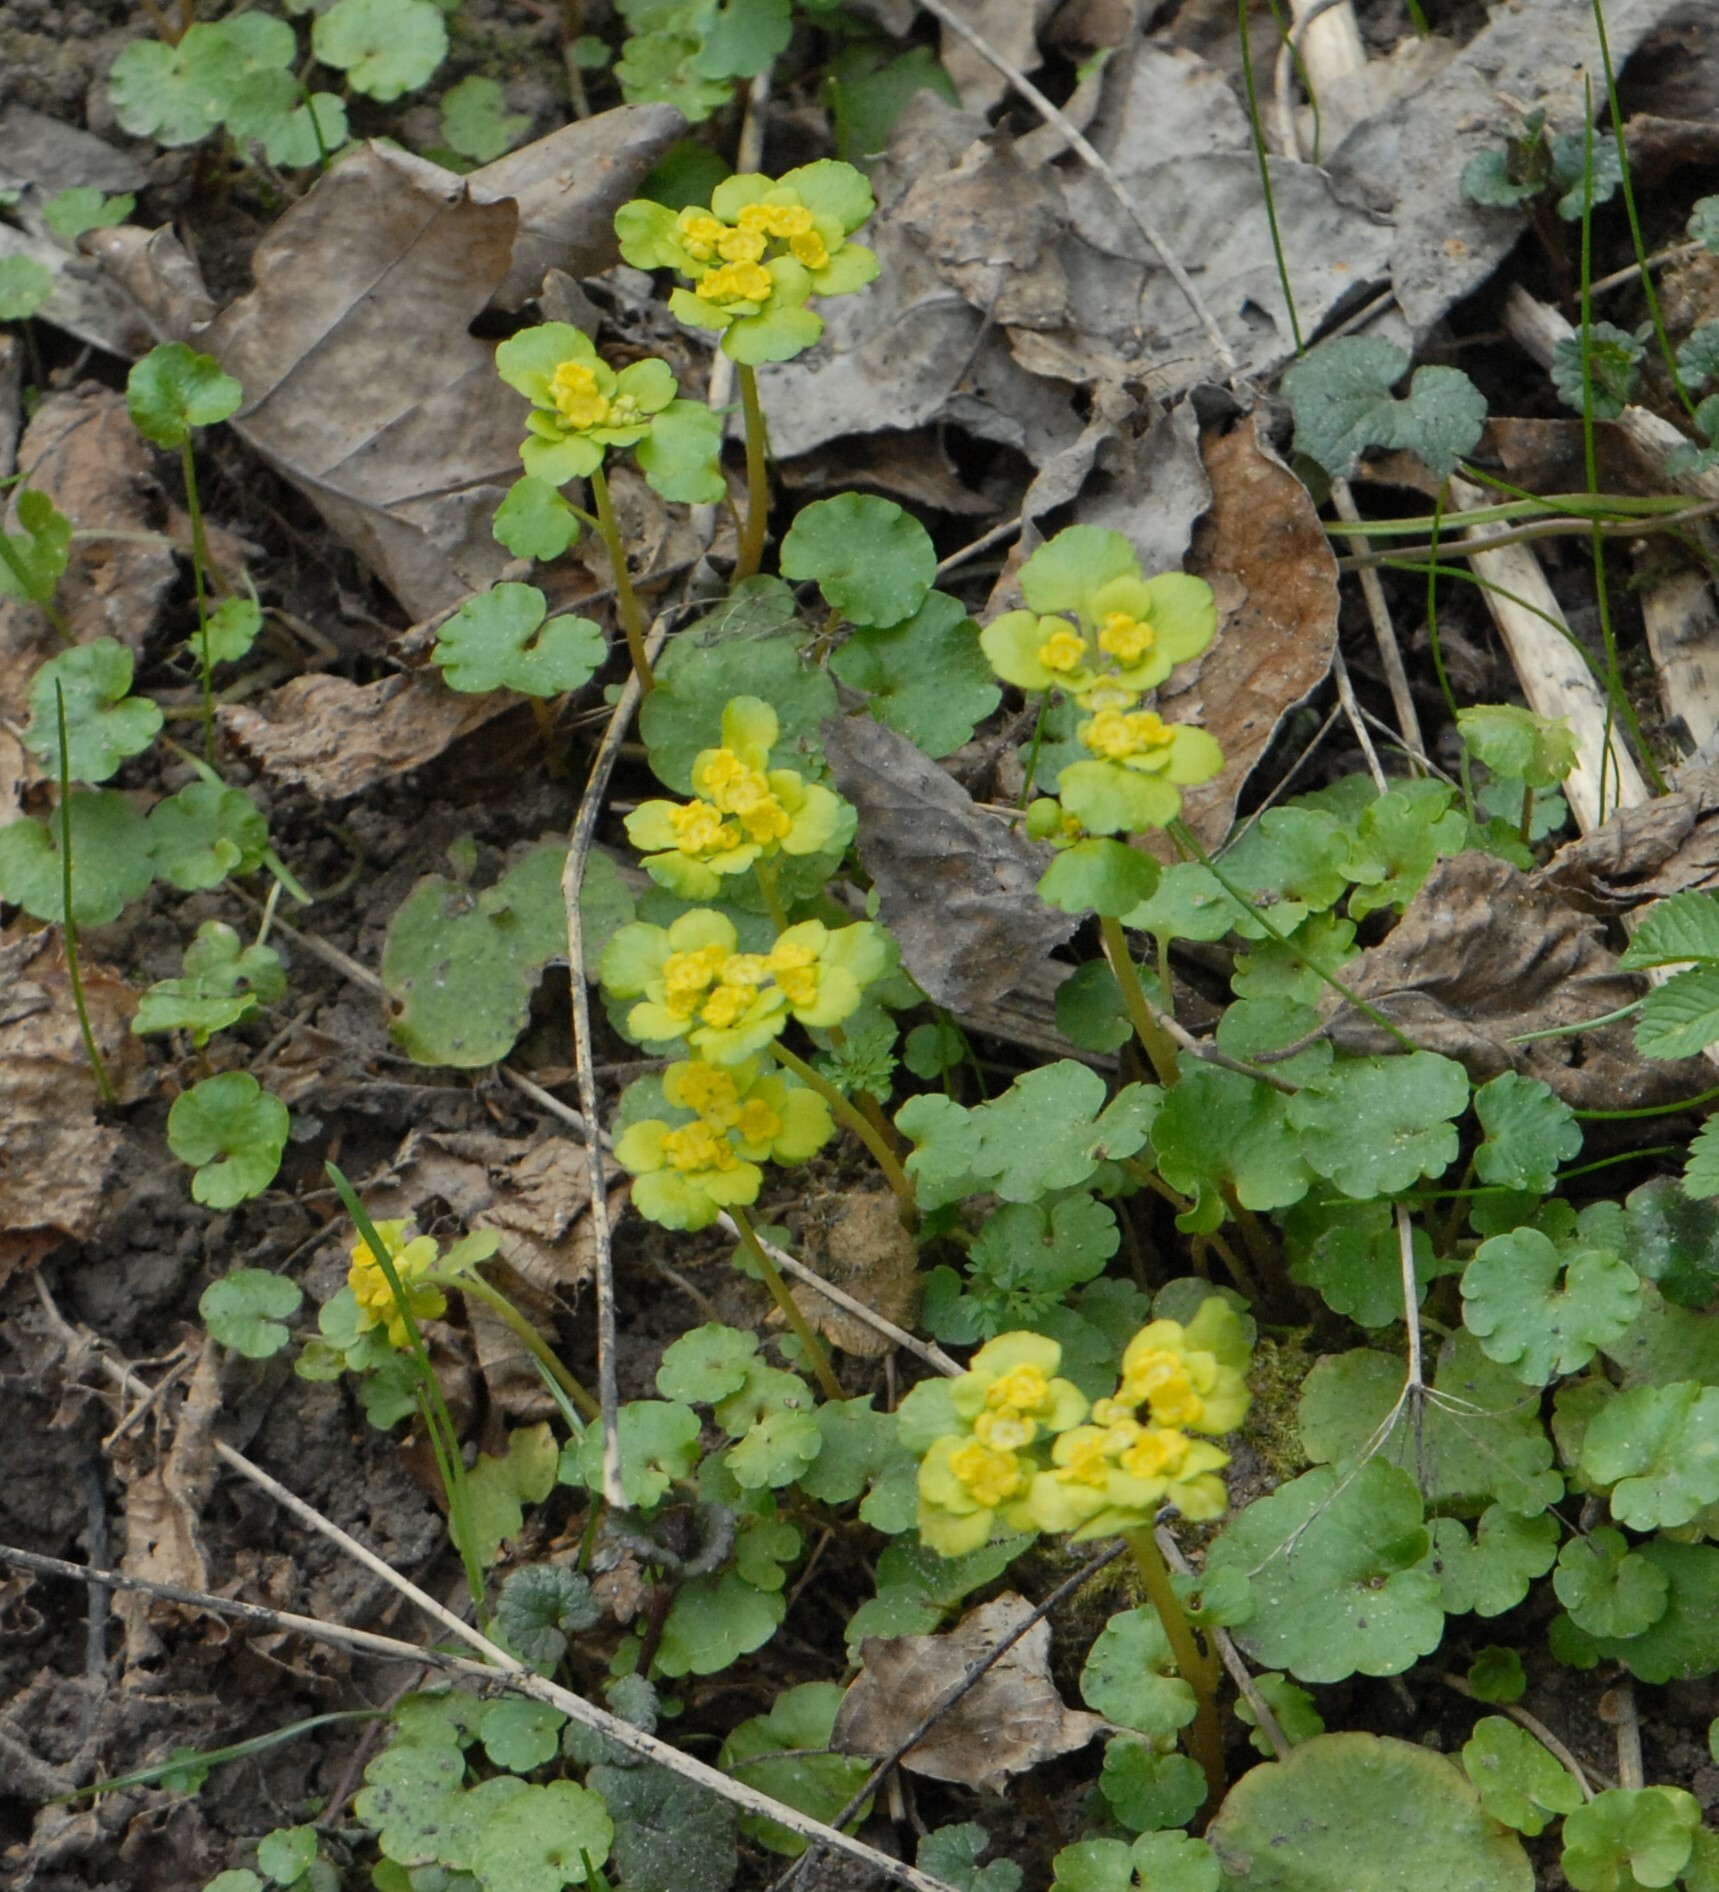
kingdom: Plantae
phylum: Tracheophyta
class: Magnoliopsida
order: Saxifragales
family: Saxifragaceae
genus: Chrysosplenium
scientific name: Chrysosplenium alternifolium
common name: Alternate-leaved golden-saxifrage
